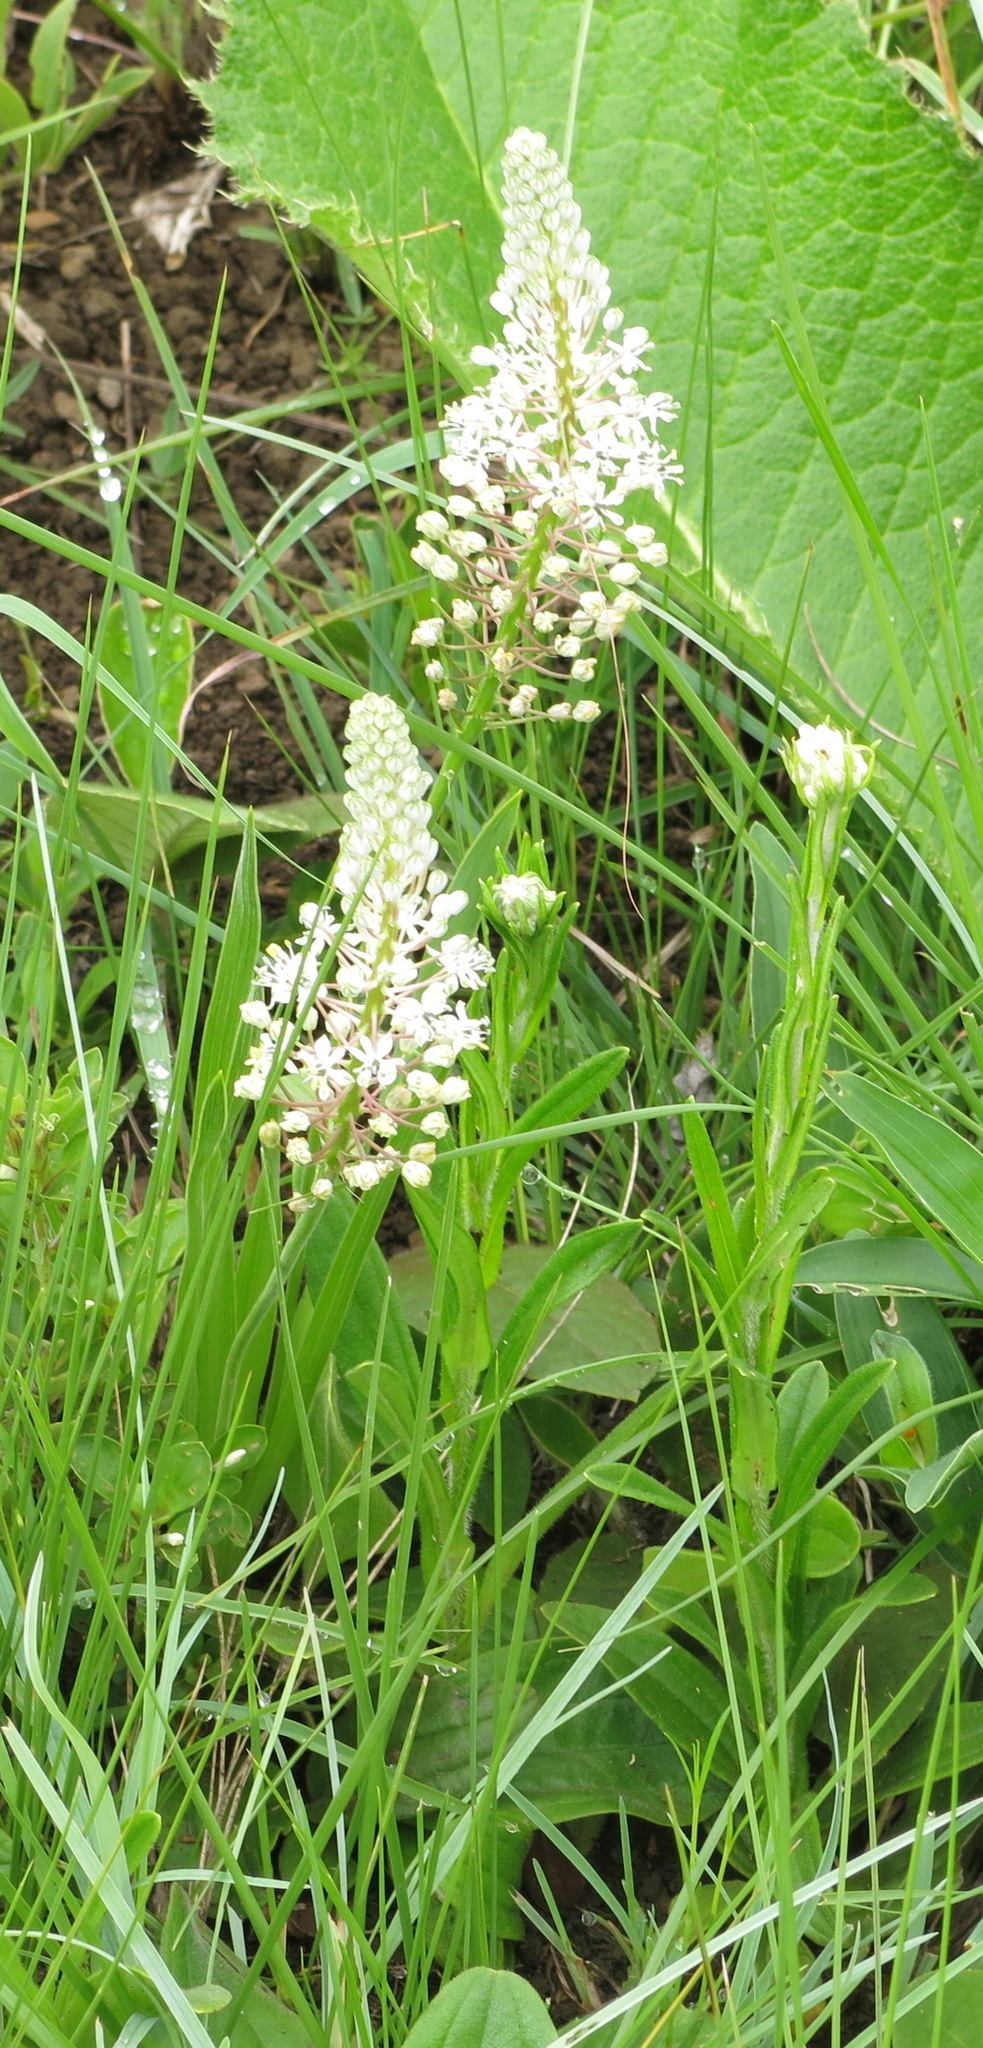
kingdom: Plantae
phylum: Tracheophyta
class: Liliopsida
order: Asparagales
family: Asparagaceae
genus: Schizocarphus
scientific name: Schizocarphus nervosus
